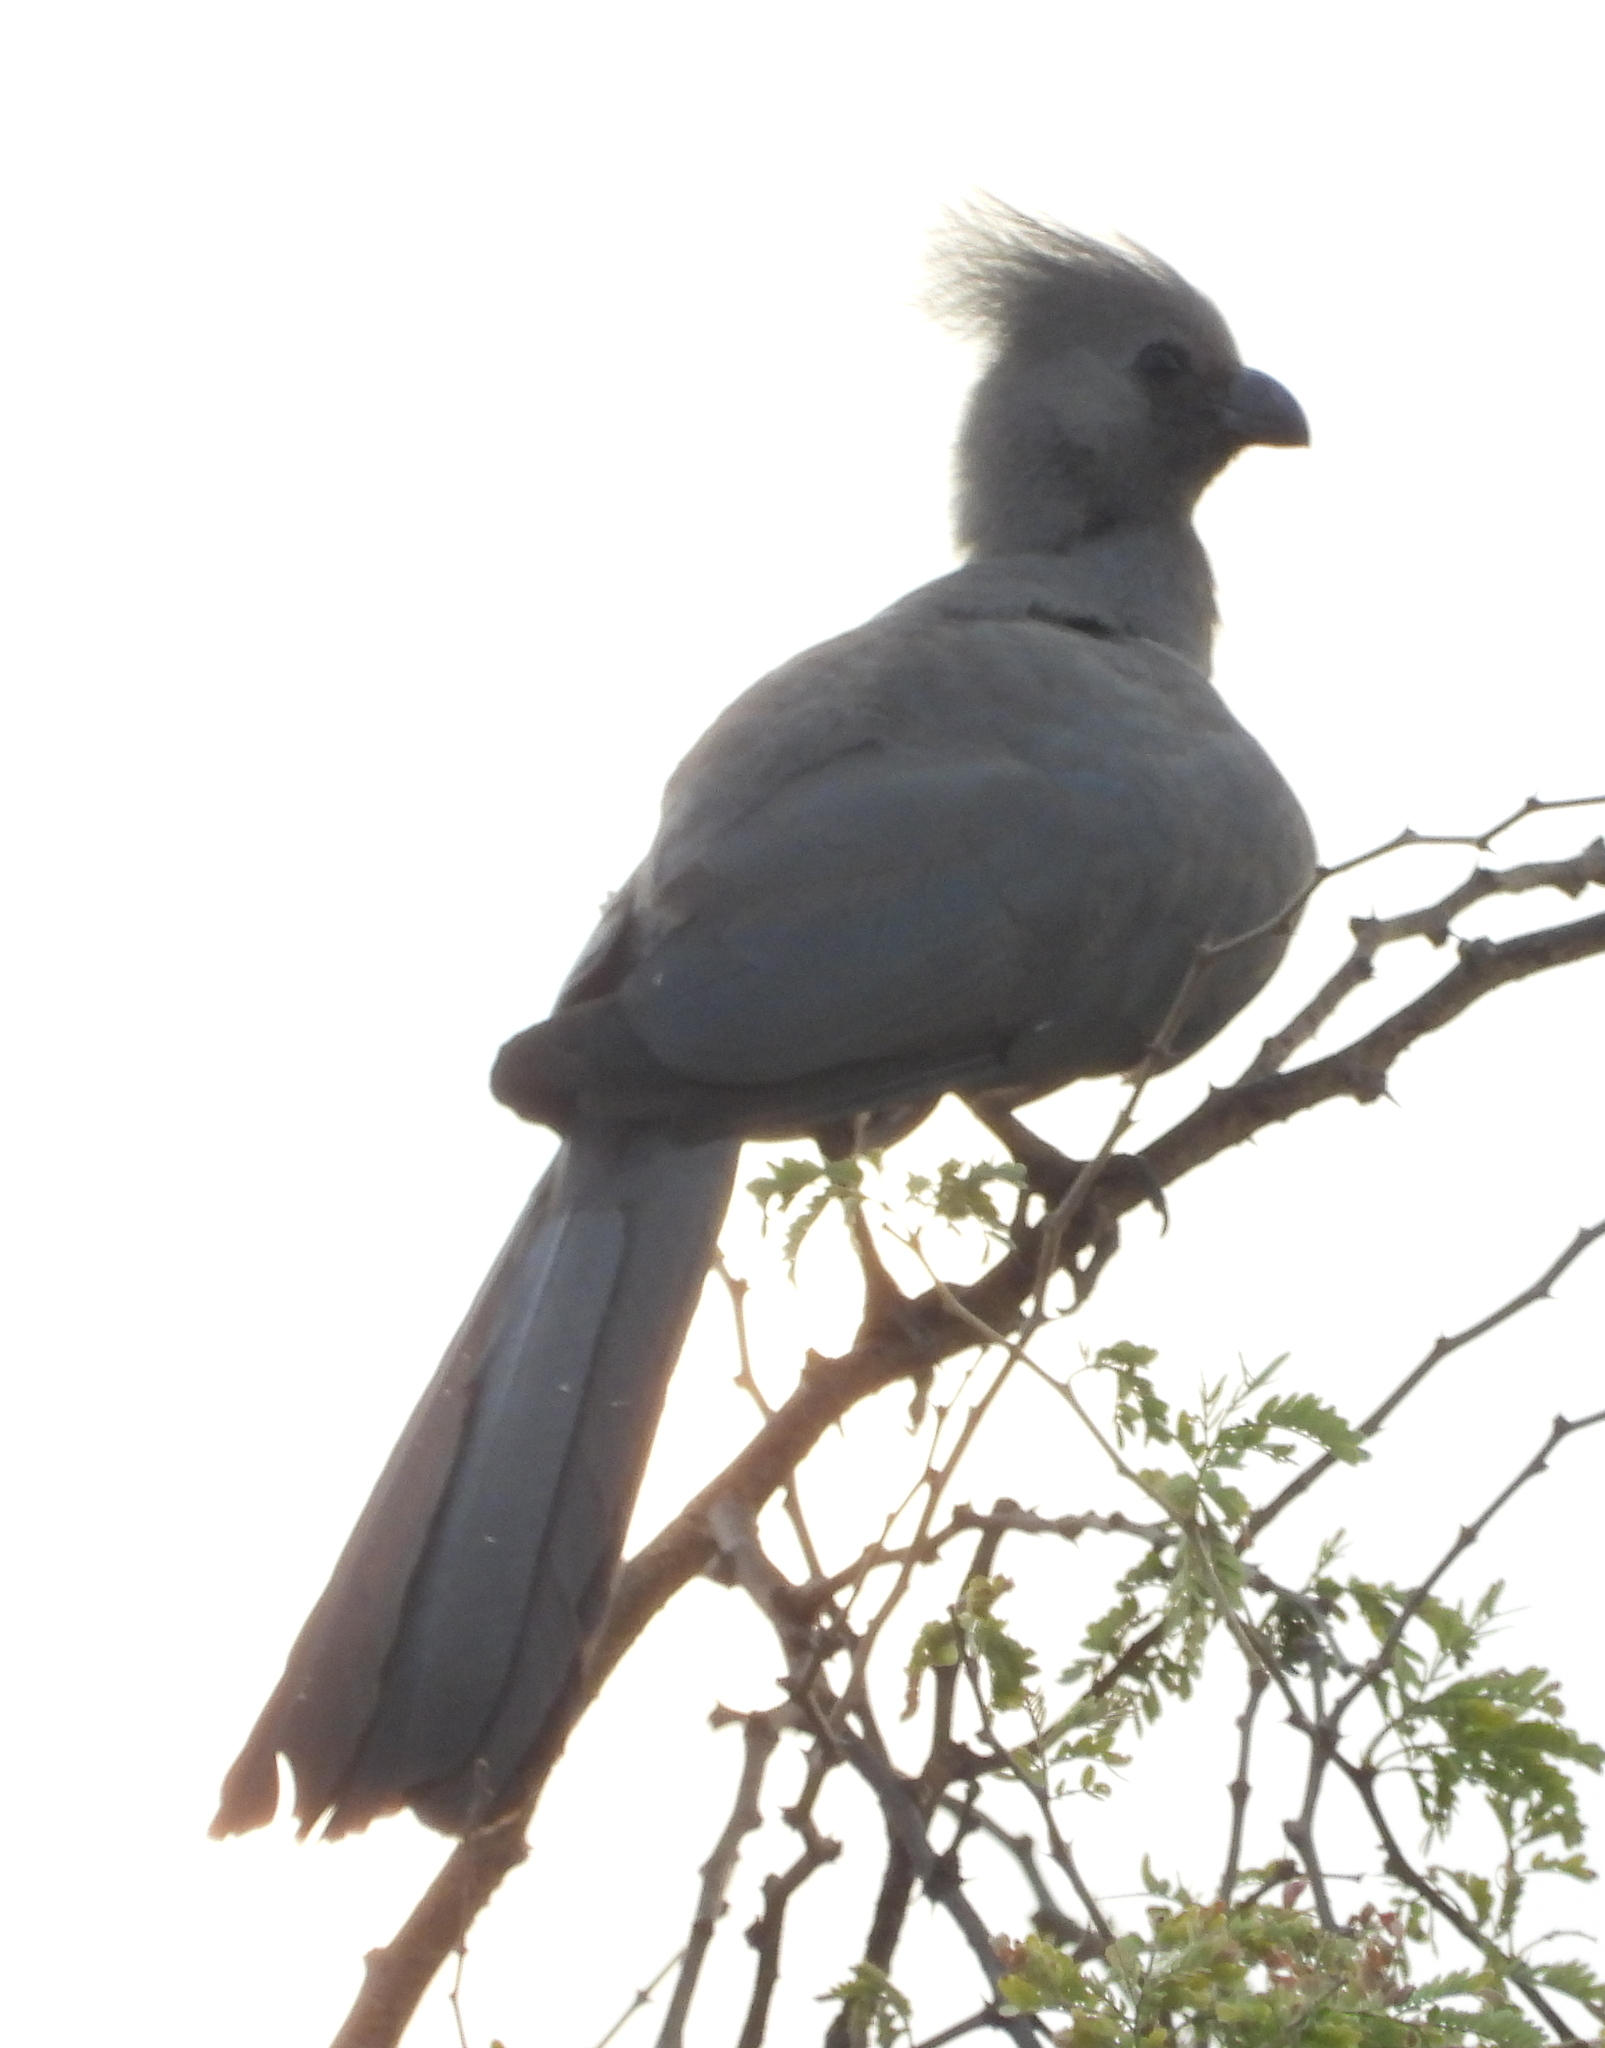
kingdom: Animalia
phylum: Chordata
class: Aves
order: Musophagiformes
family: Musophagidae
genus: Corythaixoides
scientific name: Corythaixoides concolor
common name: Grey go-away-bird
